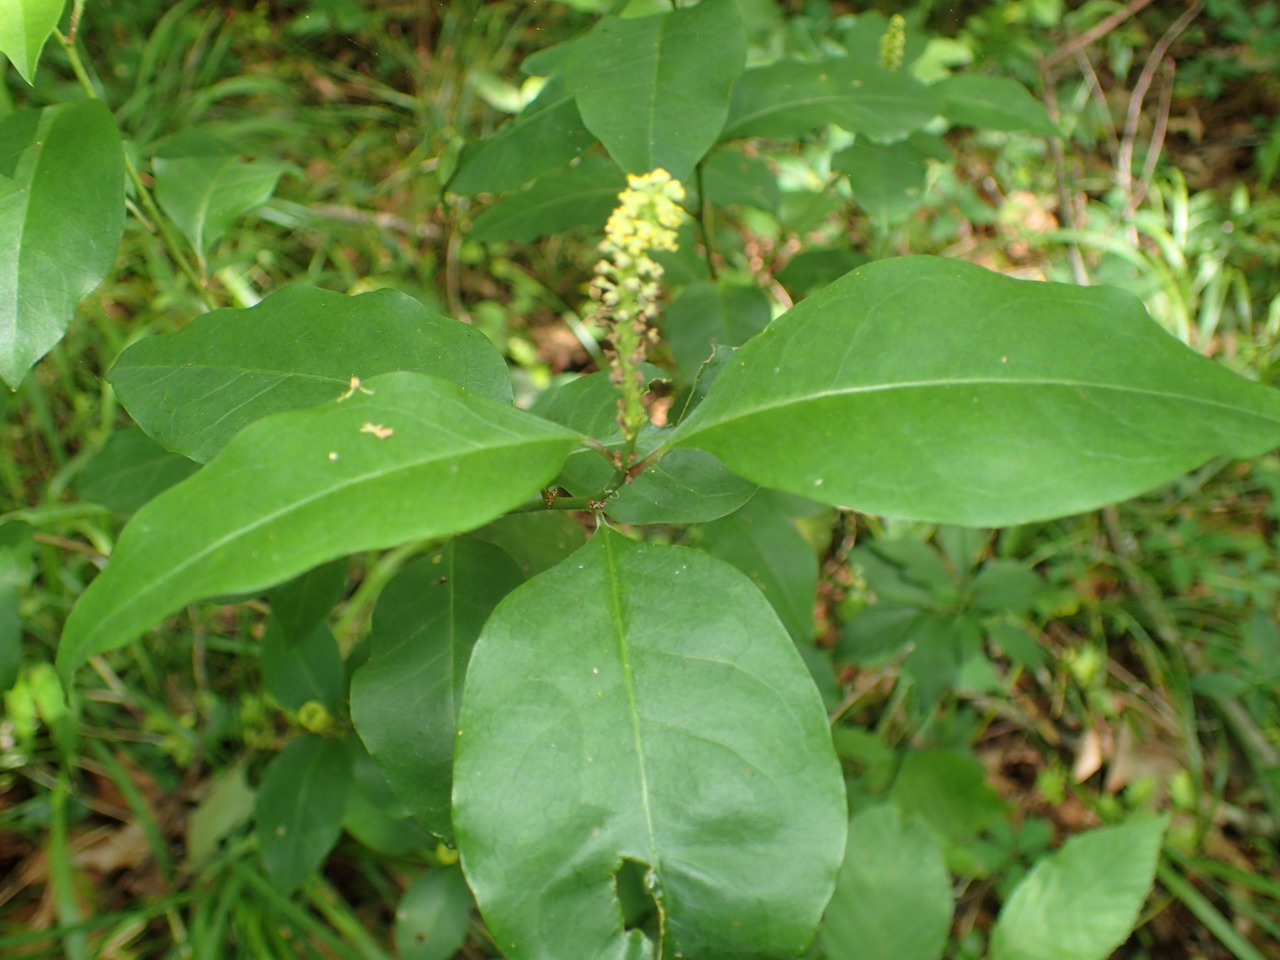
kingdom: Plantae
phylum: Tracheophyta
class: Magnoliopsida
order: Malpighiales
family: Euphorbiaceae
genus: Ditrysinia
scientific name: Ditrysinia fruticosa
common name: Gulf sebastian-bush
